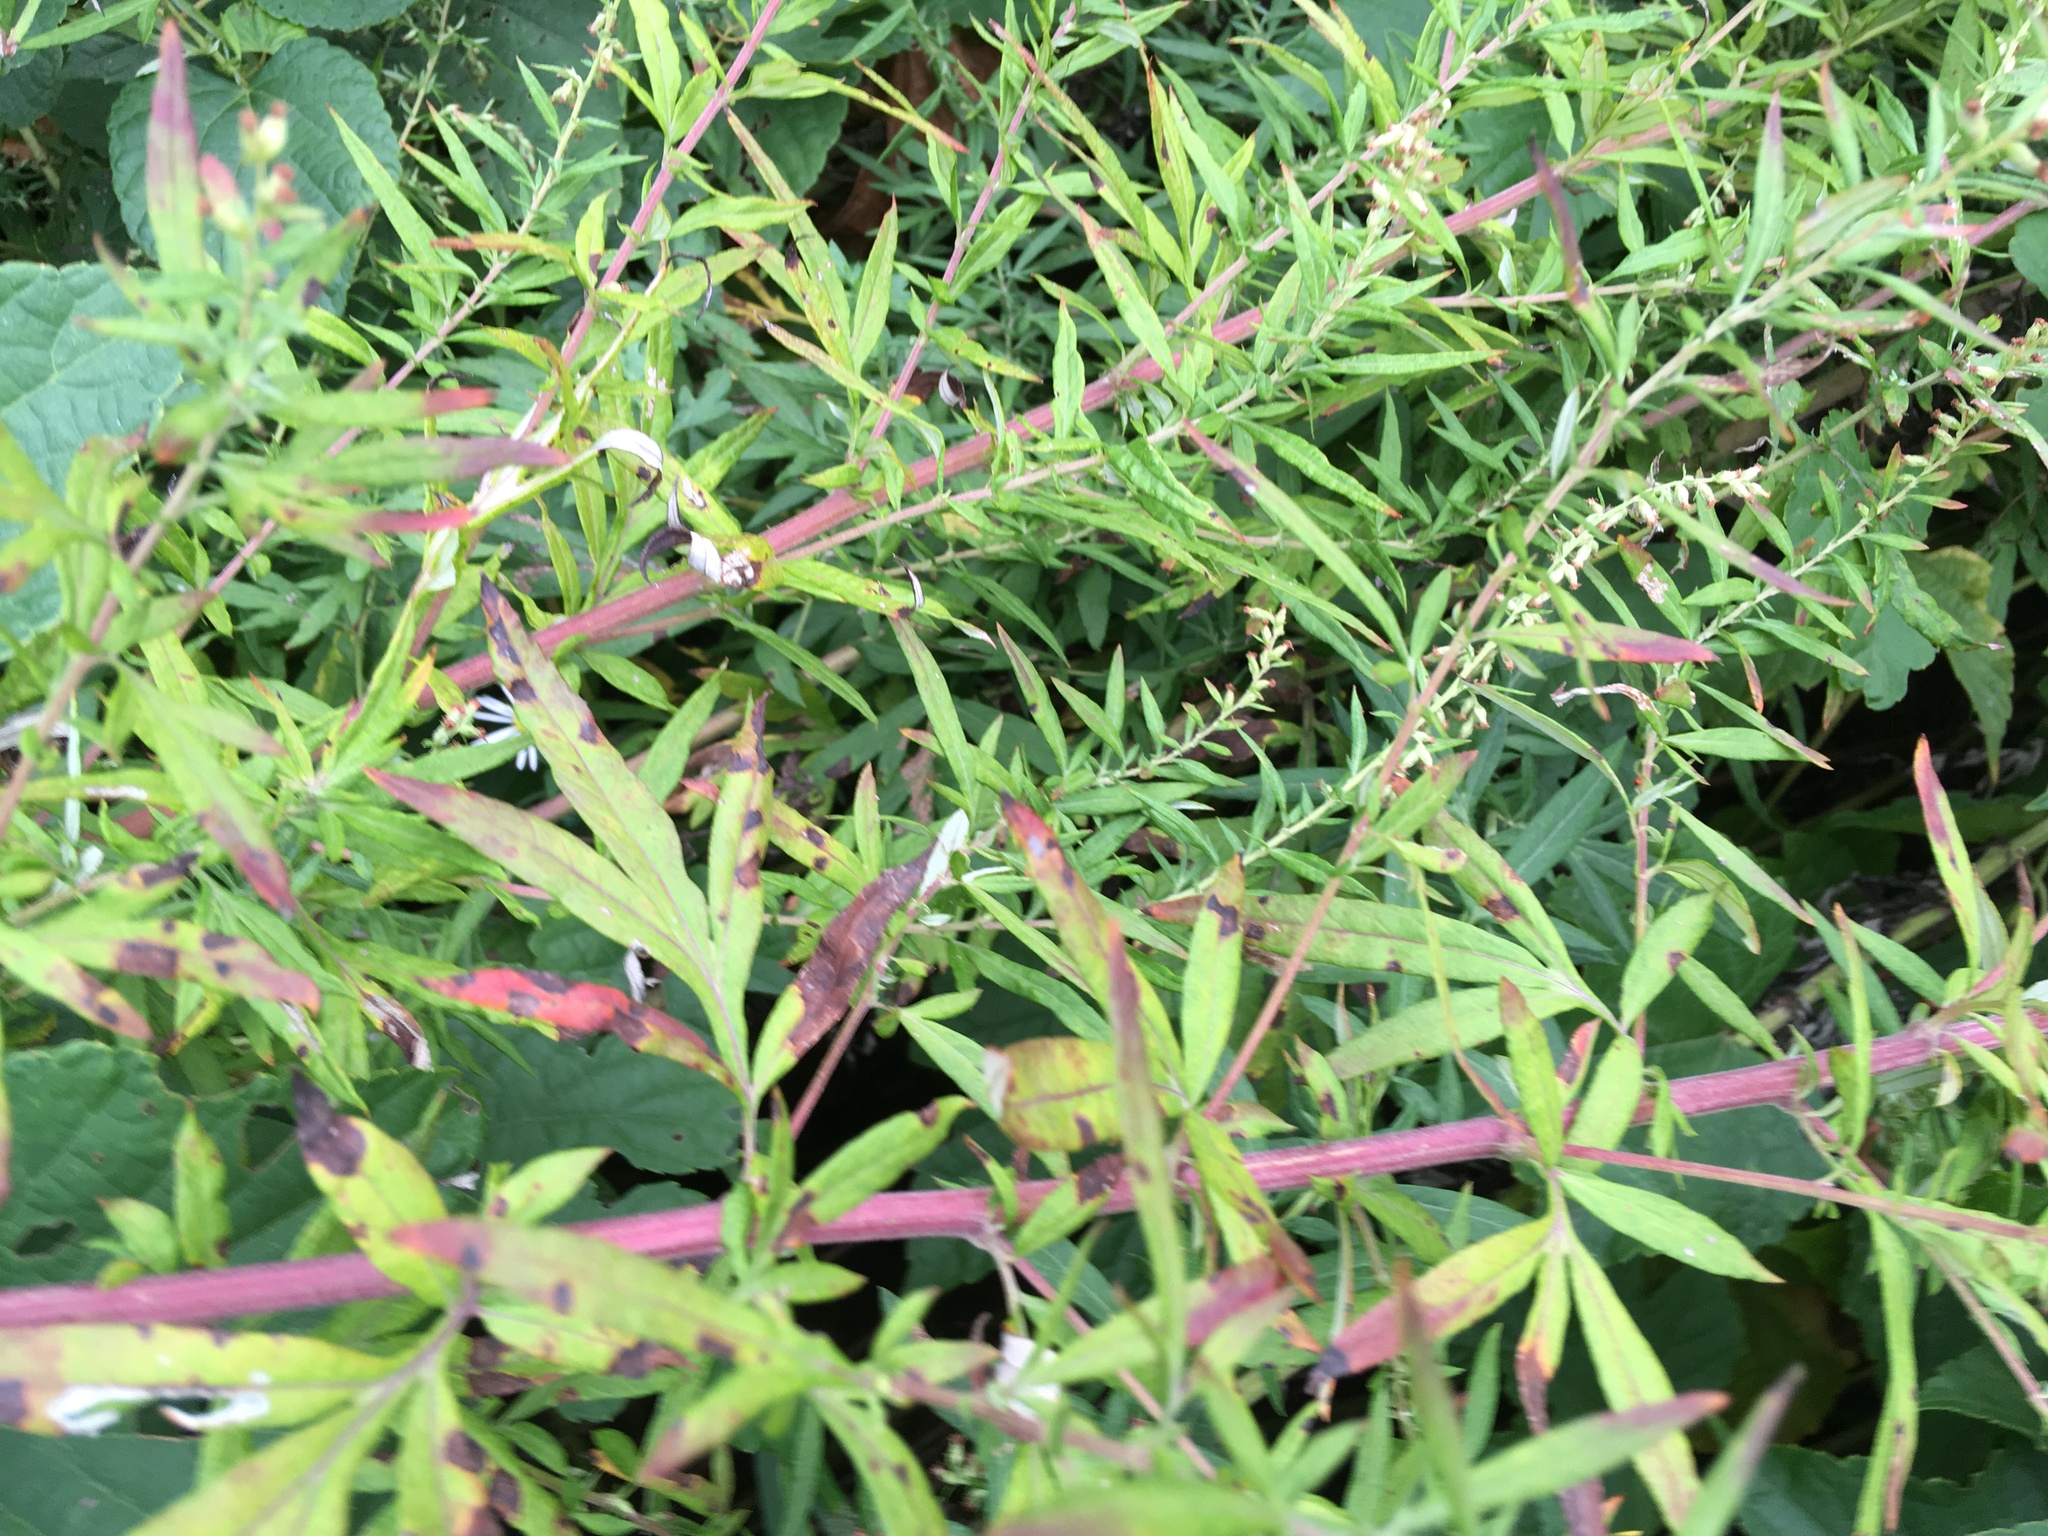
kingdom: Plantae
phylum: Tracheophyta
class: Magnoliopsida
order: Asterales
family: Asteraceae
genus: Artemisia
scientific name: Artemisia vulgaris
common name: Mugwort
